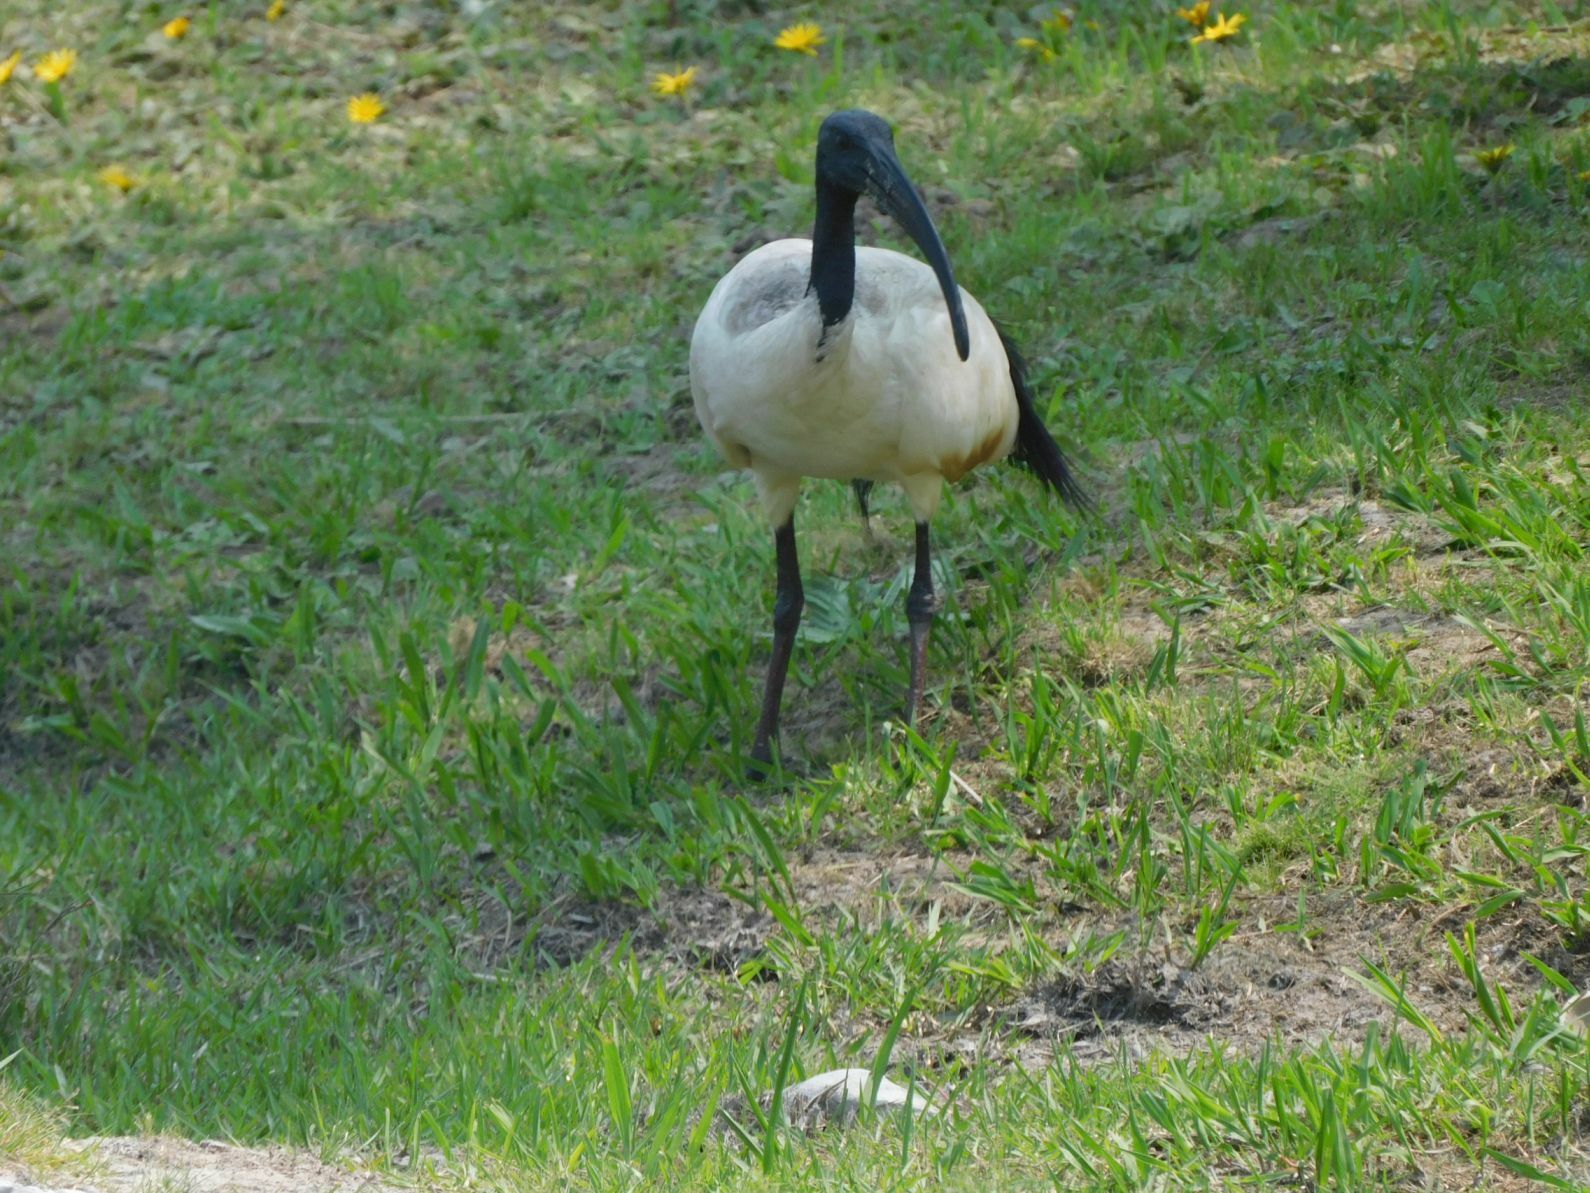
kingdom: Animalia
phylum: Chordata
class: Aves
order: Pelecaniformes
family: Threskiornithidae
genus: Threskiornis
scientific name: Threskiornis aethiopicus
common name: Sacred ibis
